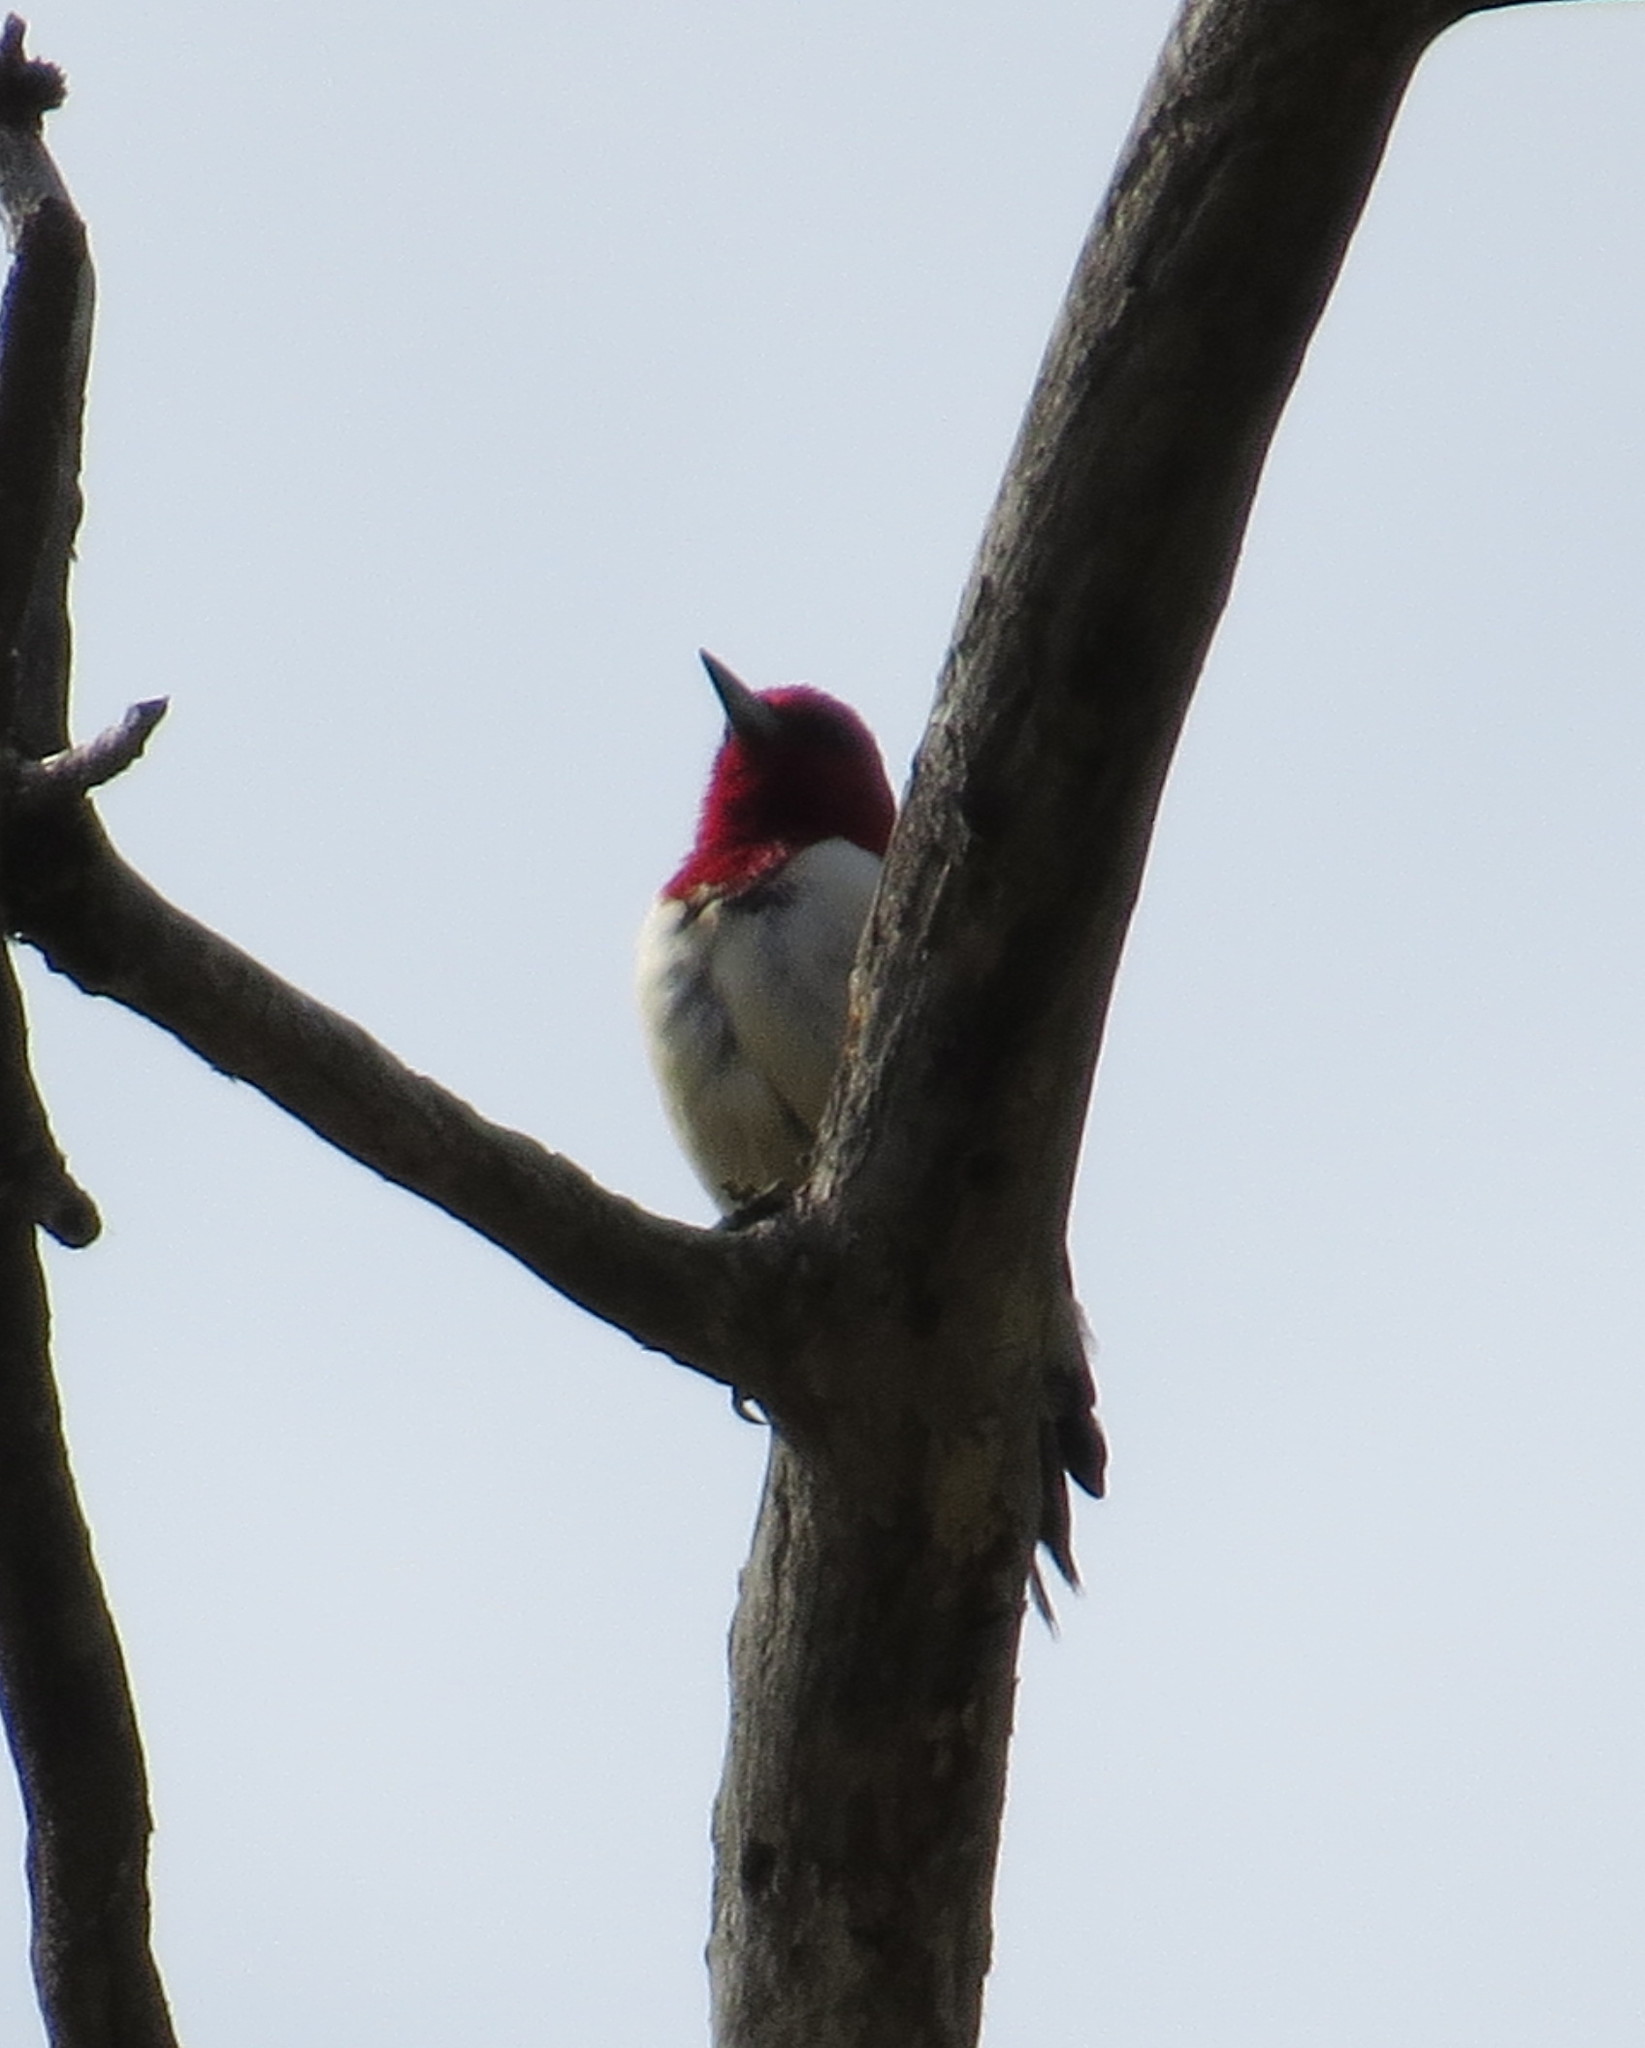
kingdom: Animalia
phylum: Chordata
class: Aves
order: Piciformes
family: Picidae
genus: Melanerpes
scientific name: Melanerpes erythrocephalus
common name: Red-headed woodpecker
